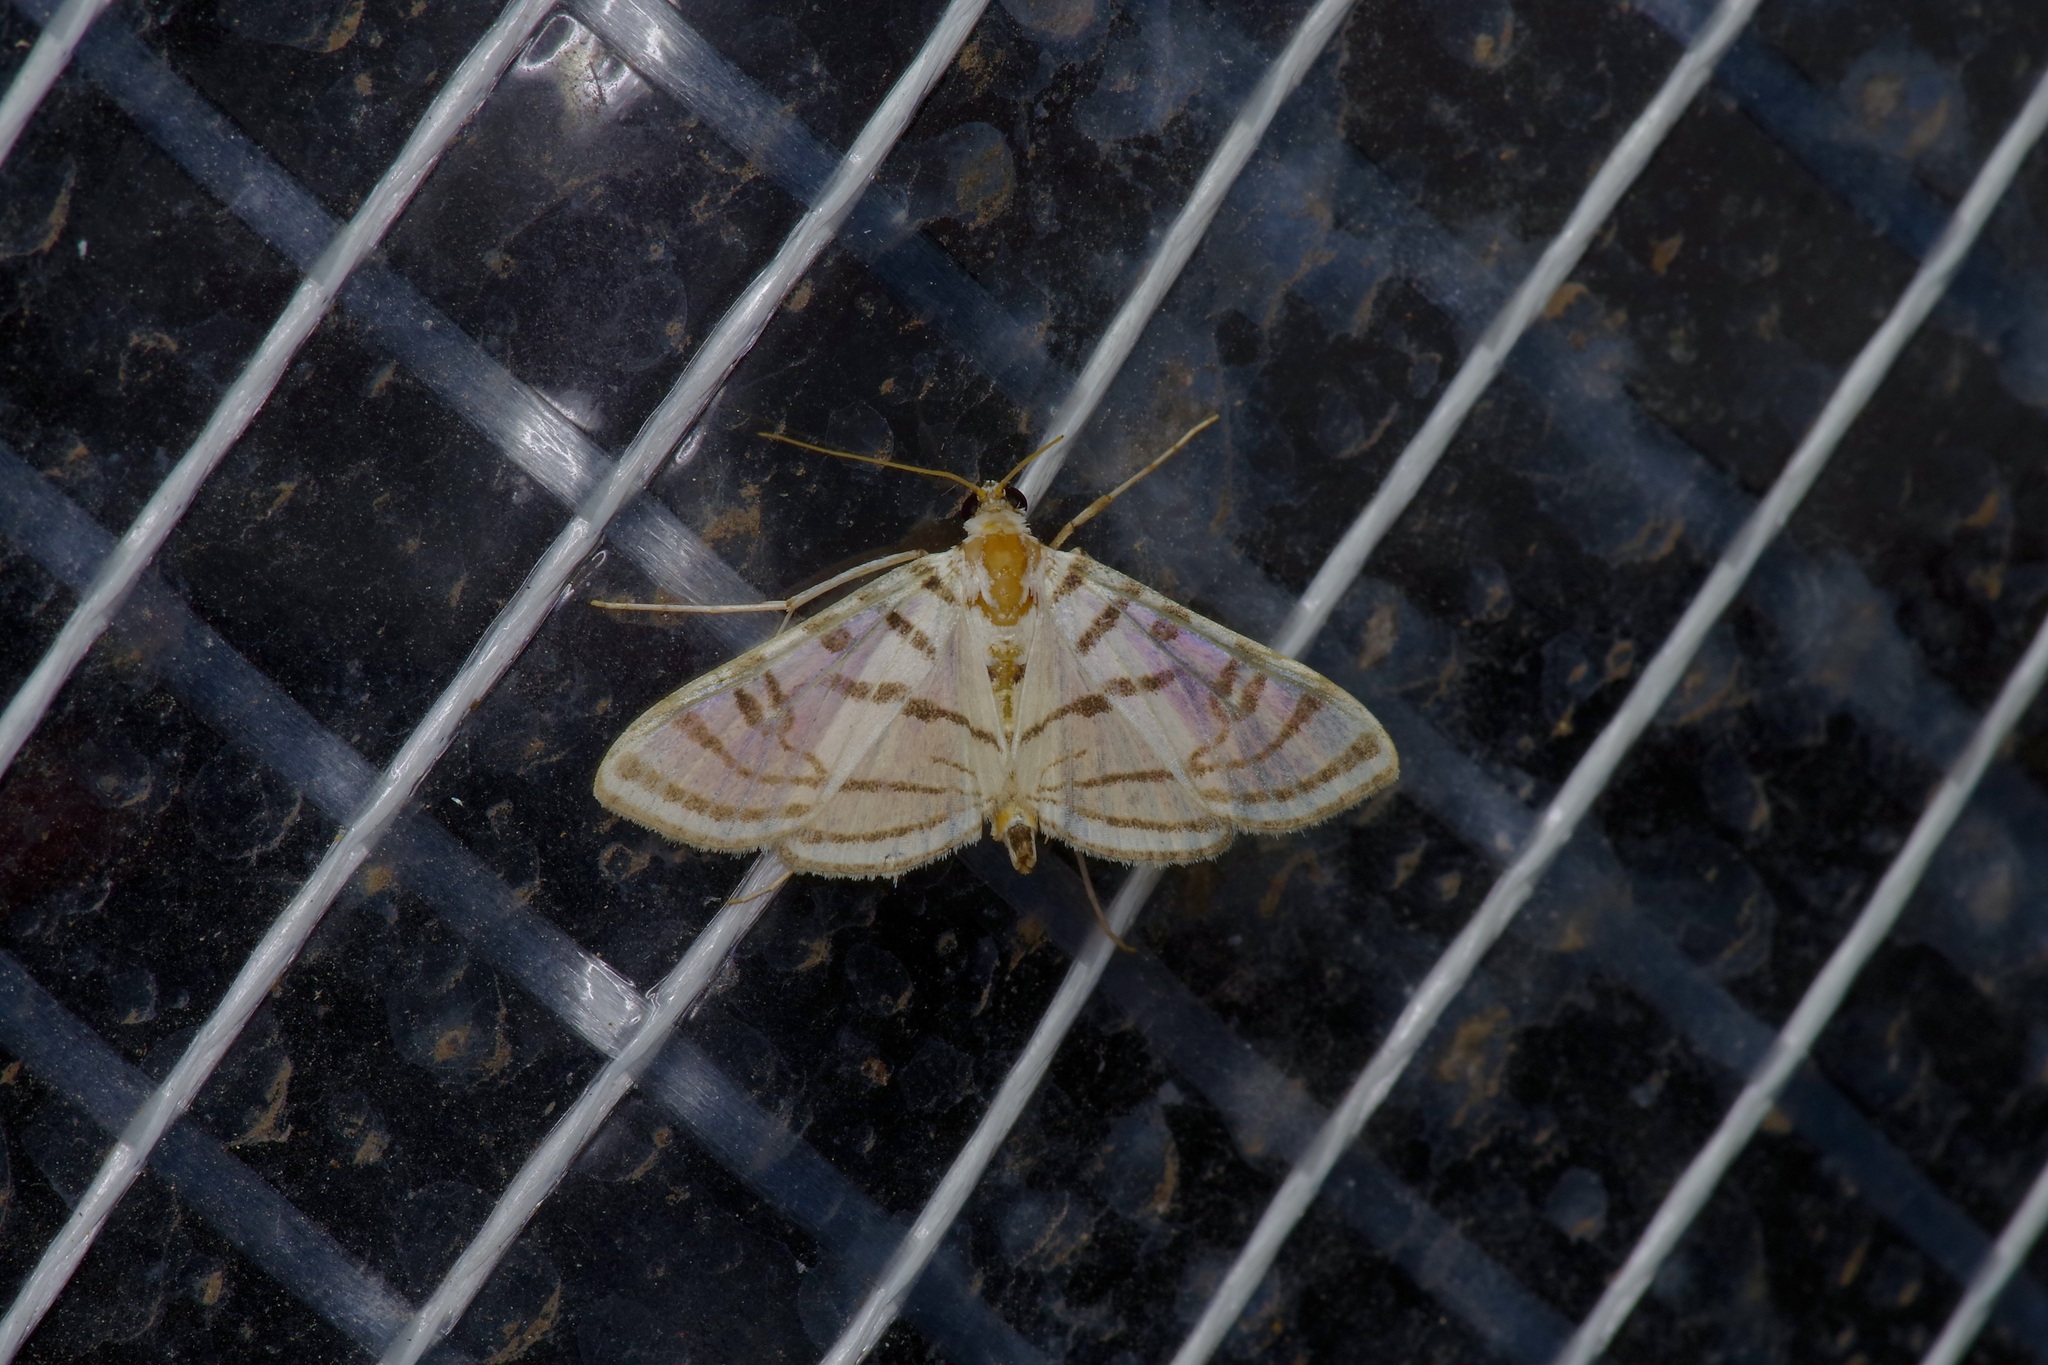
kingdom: Animalia
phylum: Arthropoda
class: Insecta
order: Lepidoptera
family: Crambidae
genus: Conchylodes
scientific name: Conchylodes ovulalis
